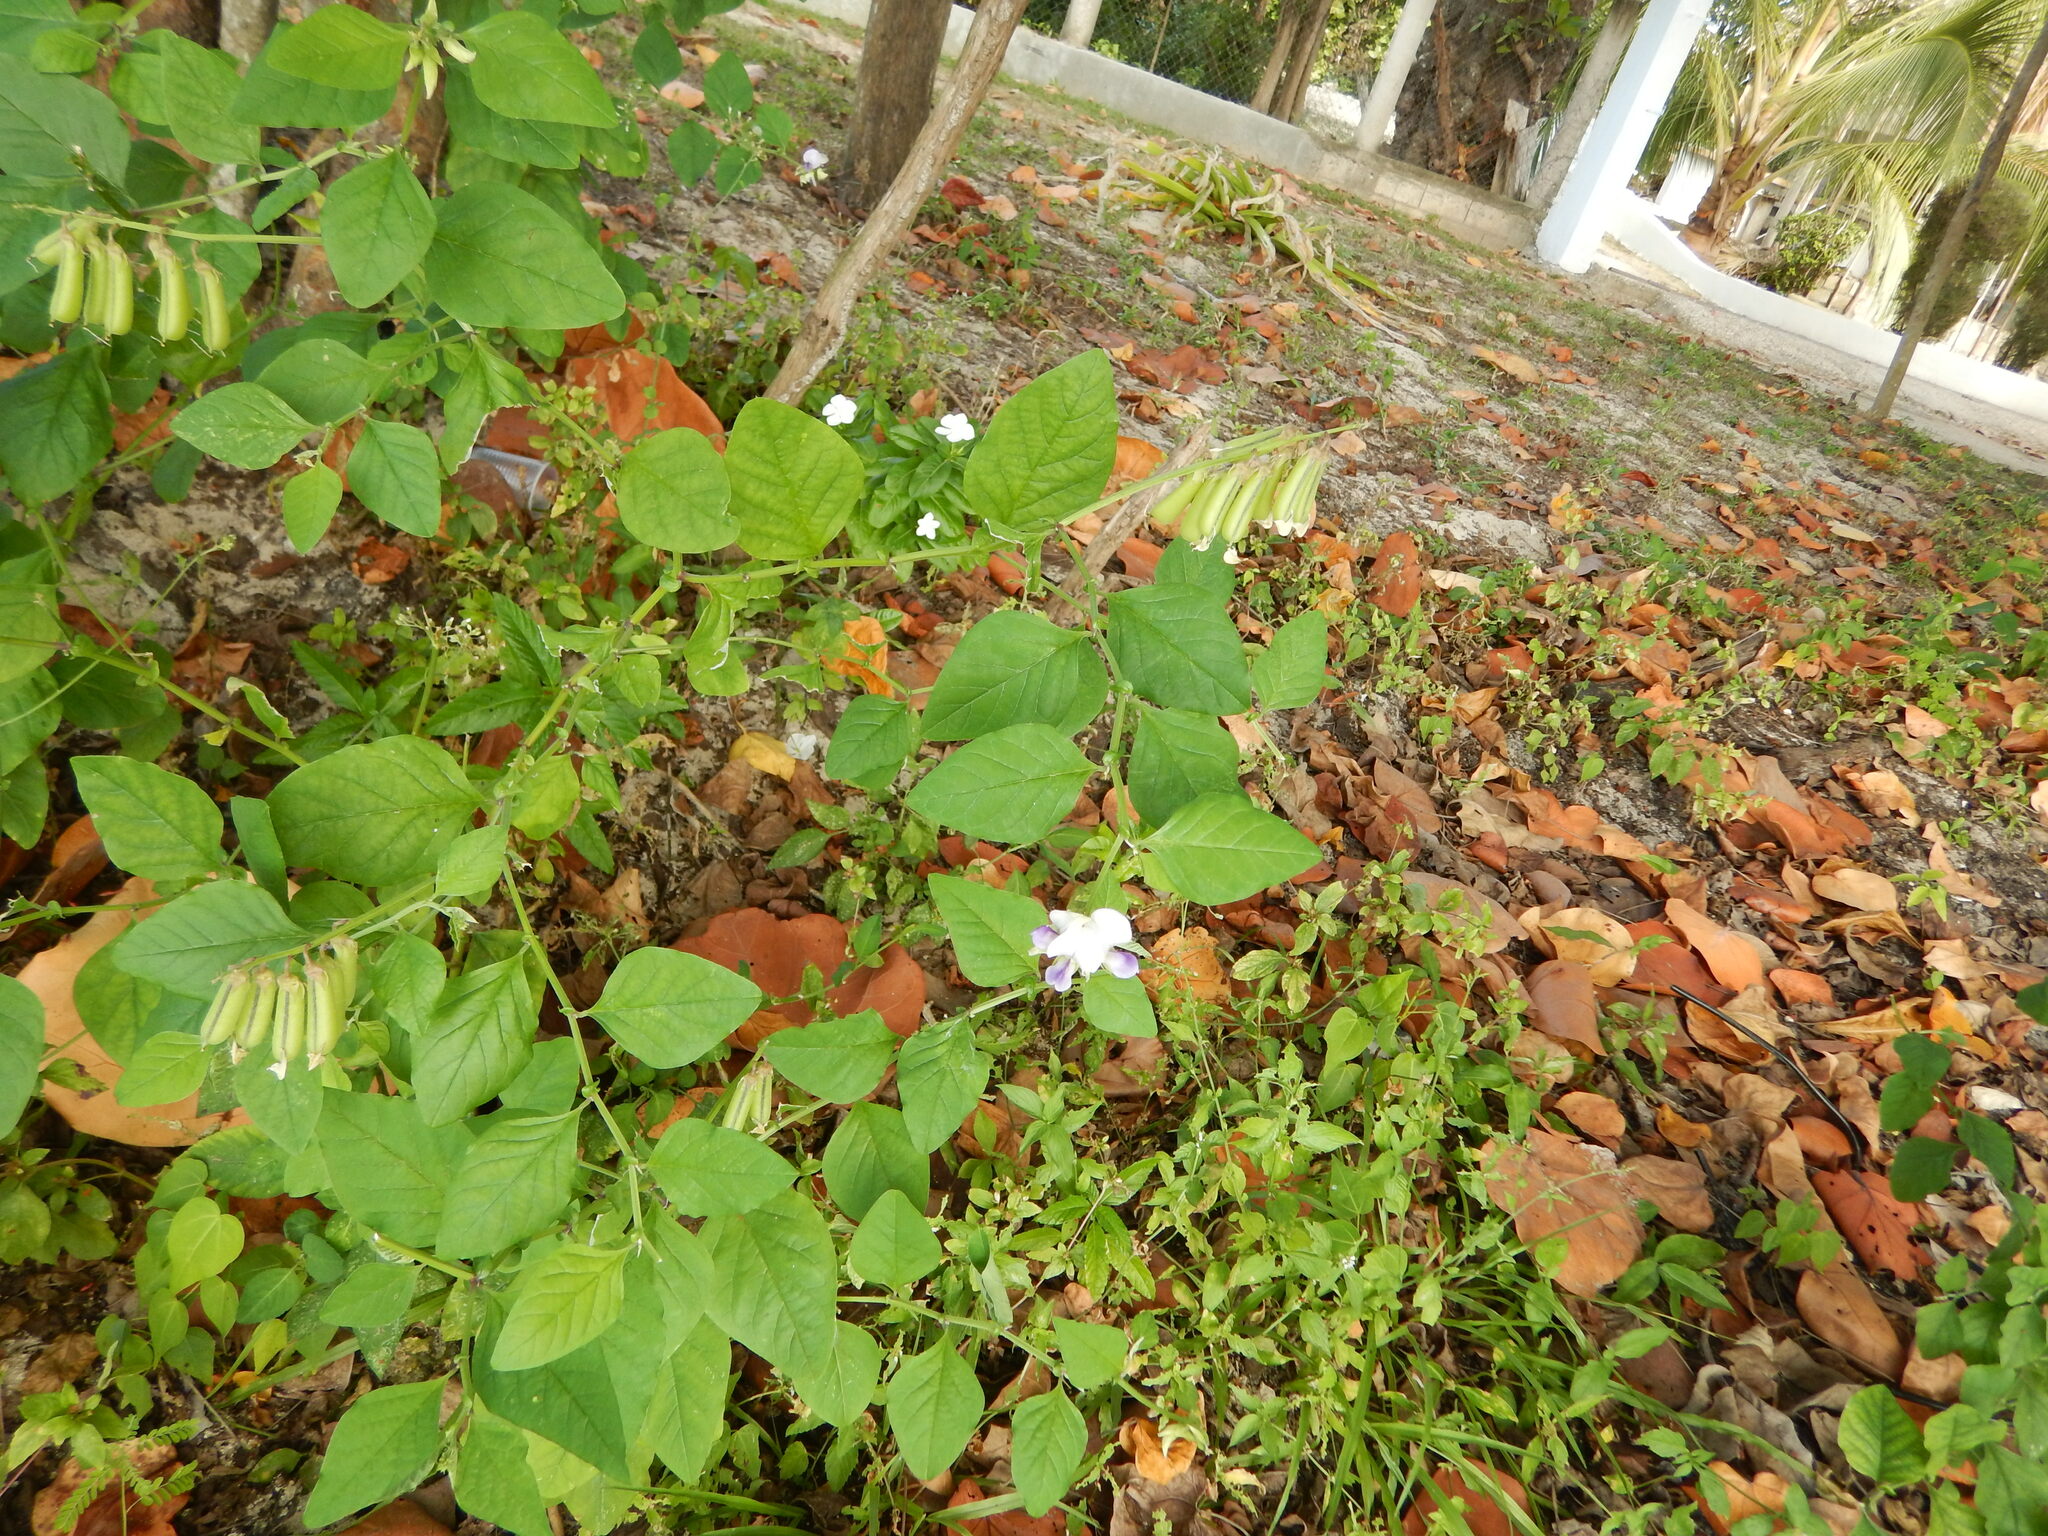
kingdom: Plantae
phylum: Tracheophyta
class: Magnoliopsida
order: Fabales
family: Fabaceae
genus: Crotalaria
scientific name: Crotalaria verrucosa
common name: Blue rattlesnake
